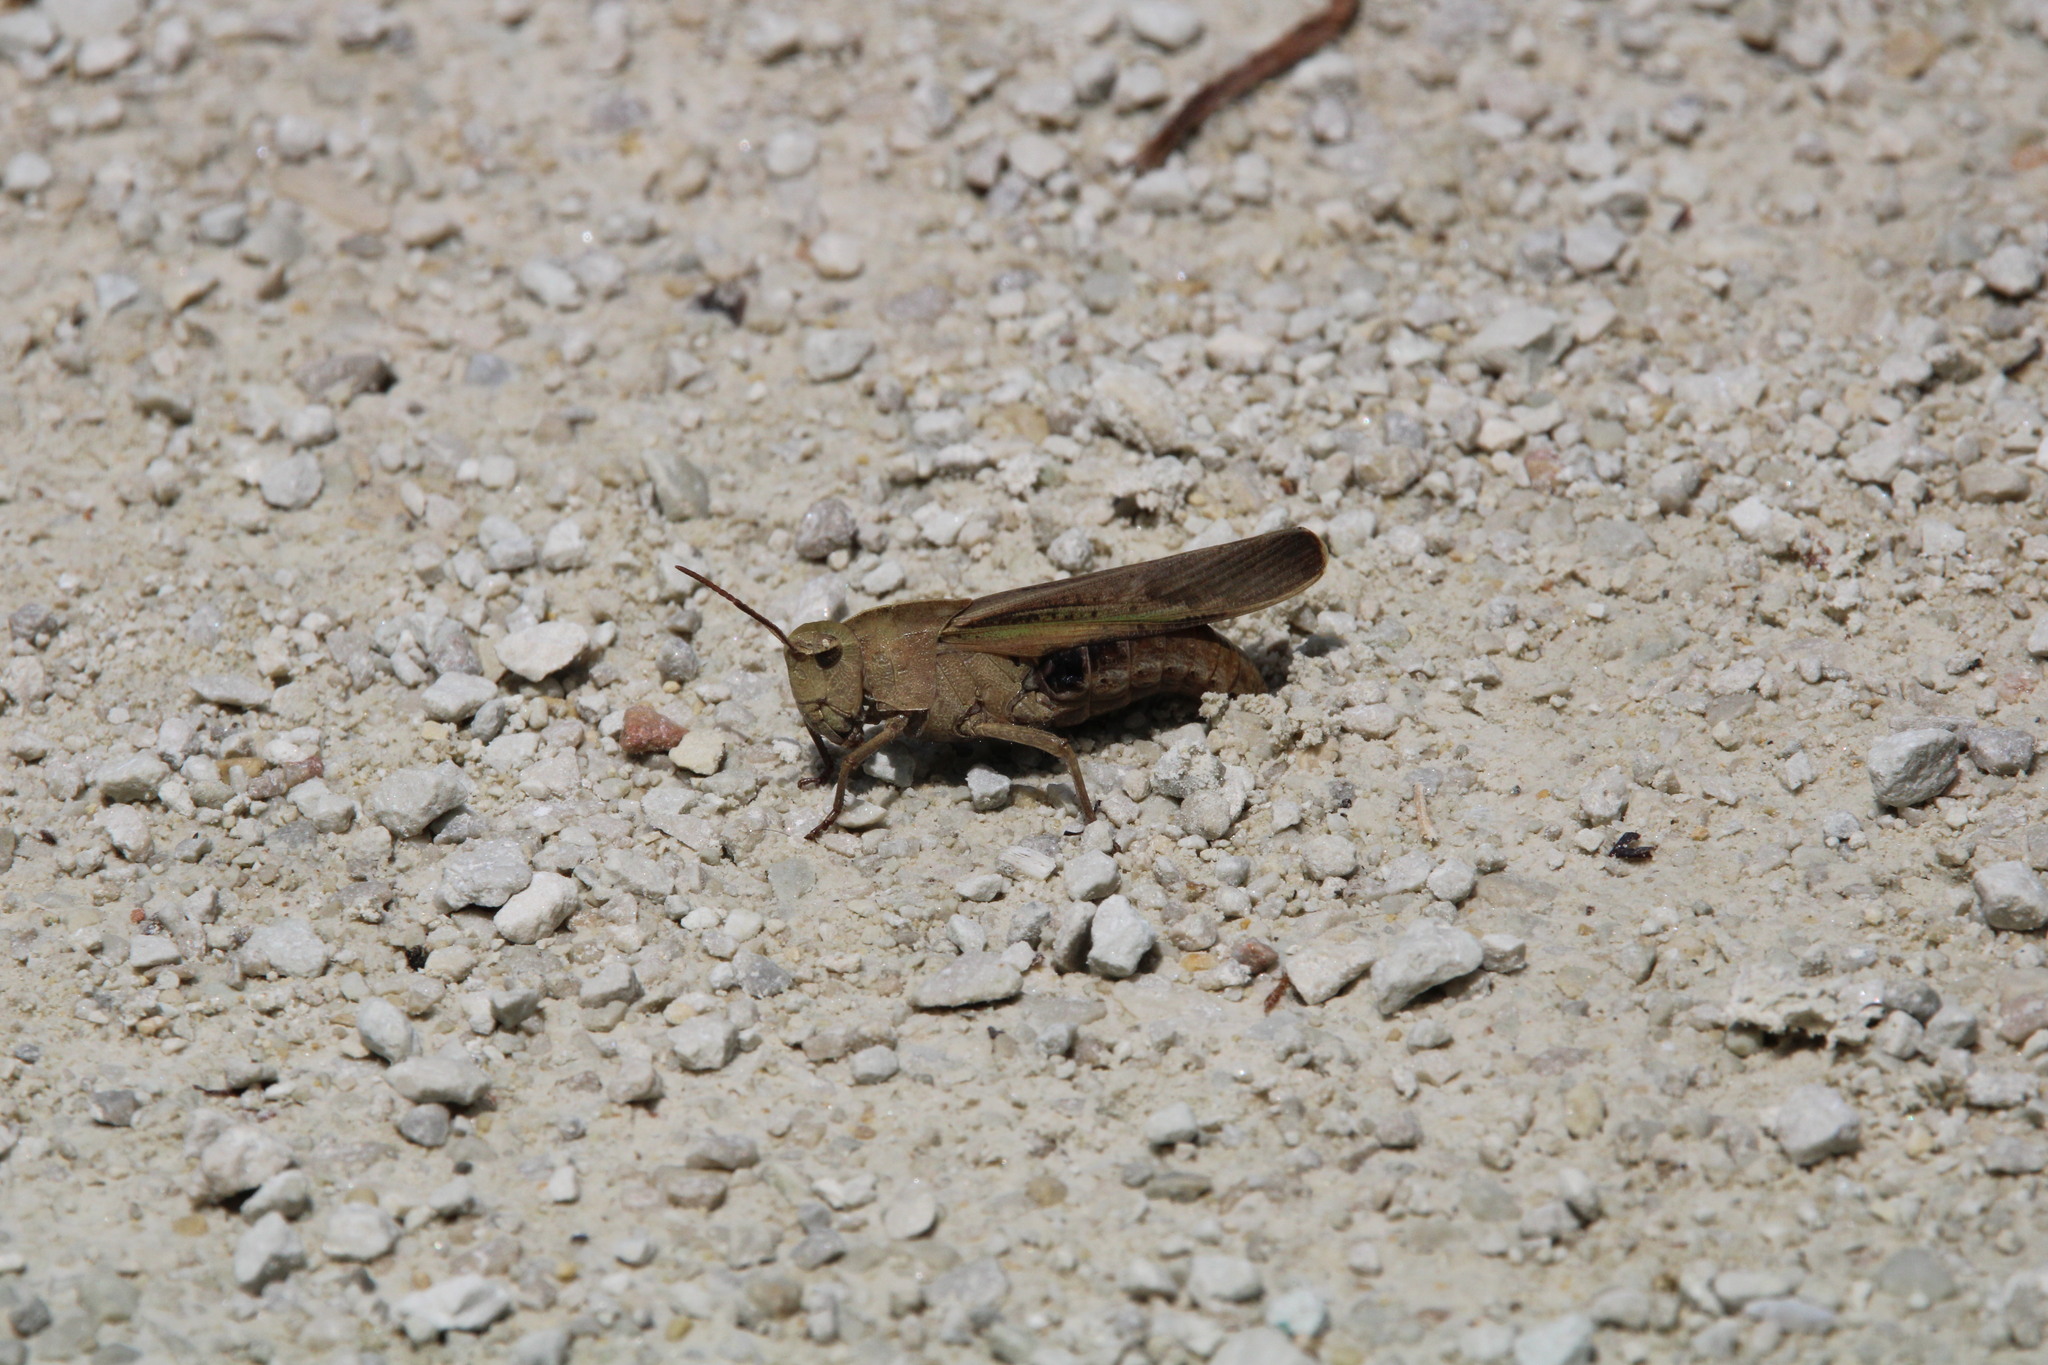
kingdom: Animalia
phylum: Arthropoda
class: Insecta
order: Orthoptera
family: Acrididae
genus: Chortophaga
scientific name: Chortophaga viridifasciata
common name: Green-striped grasshopper
